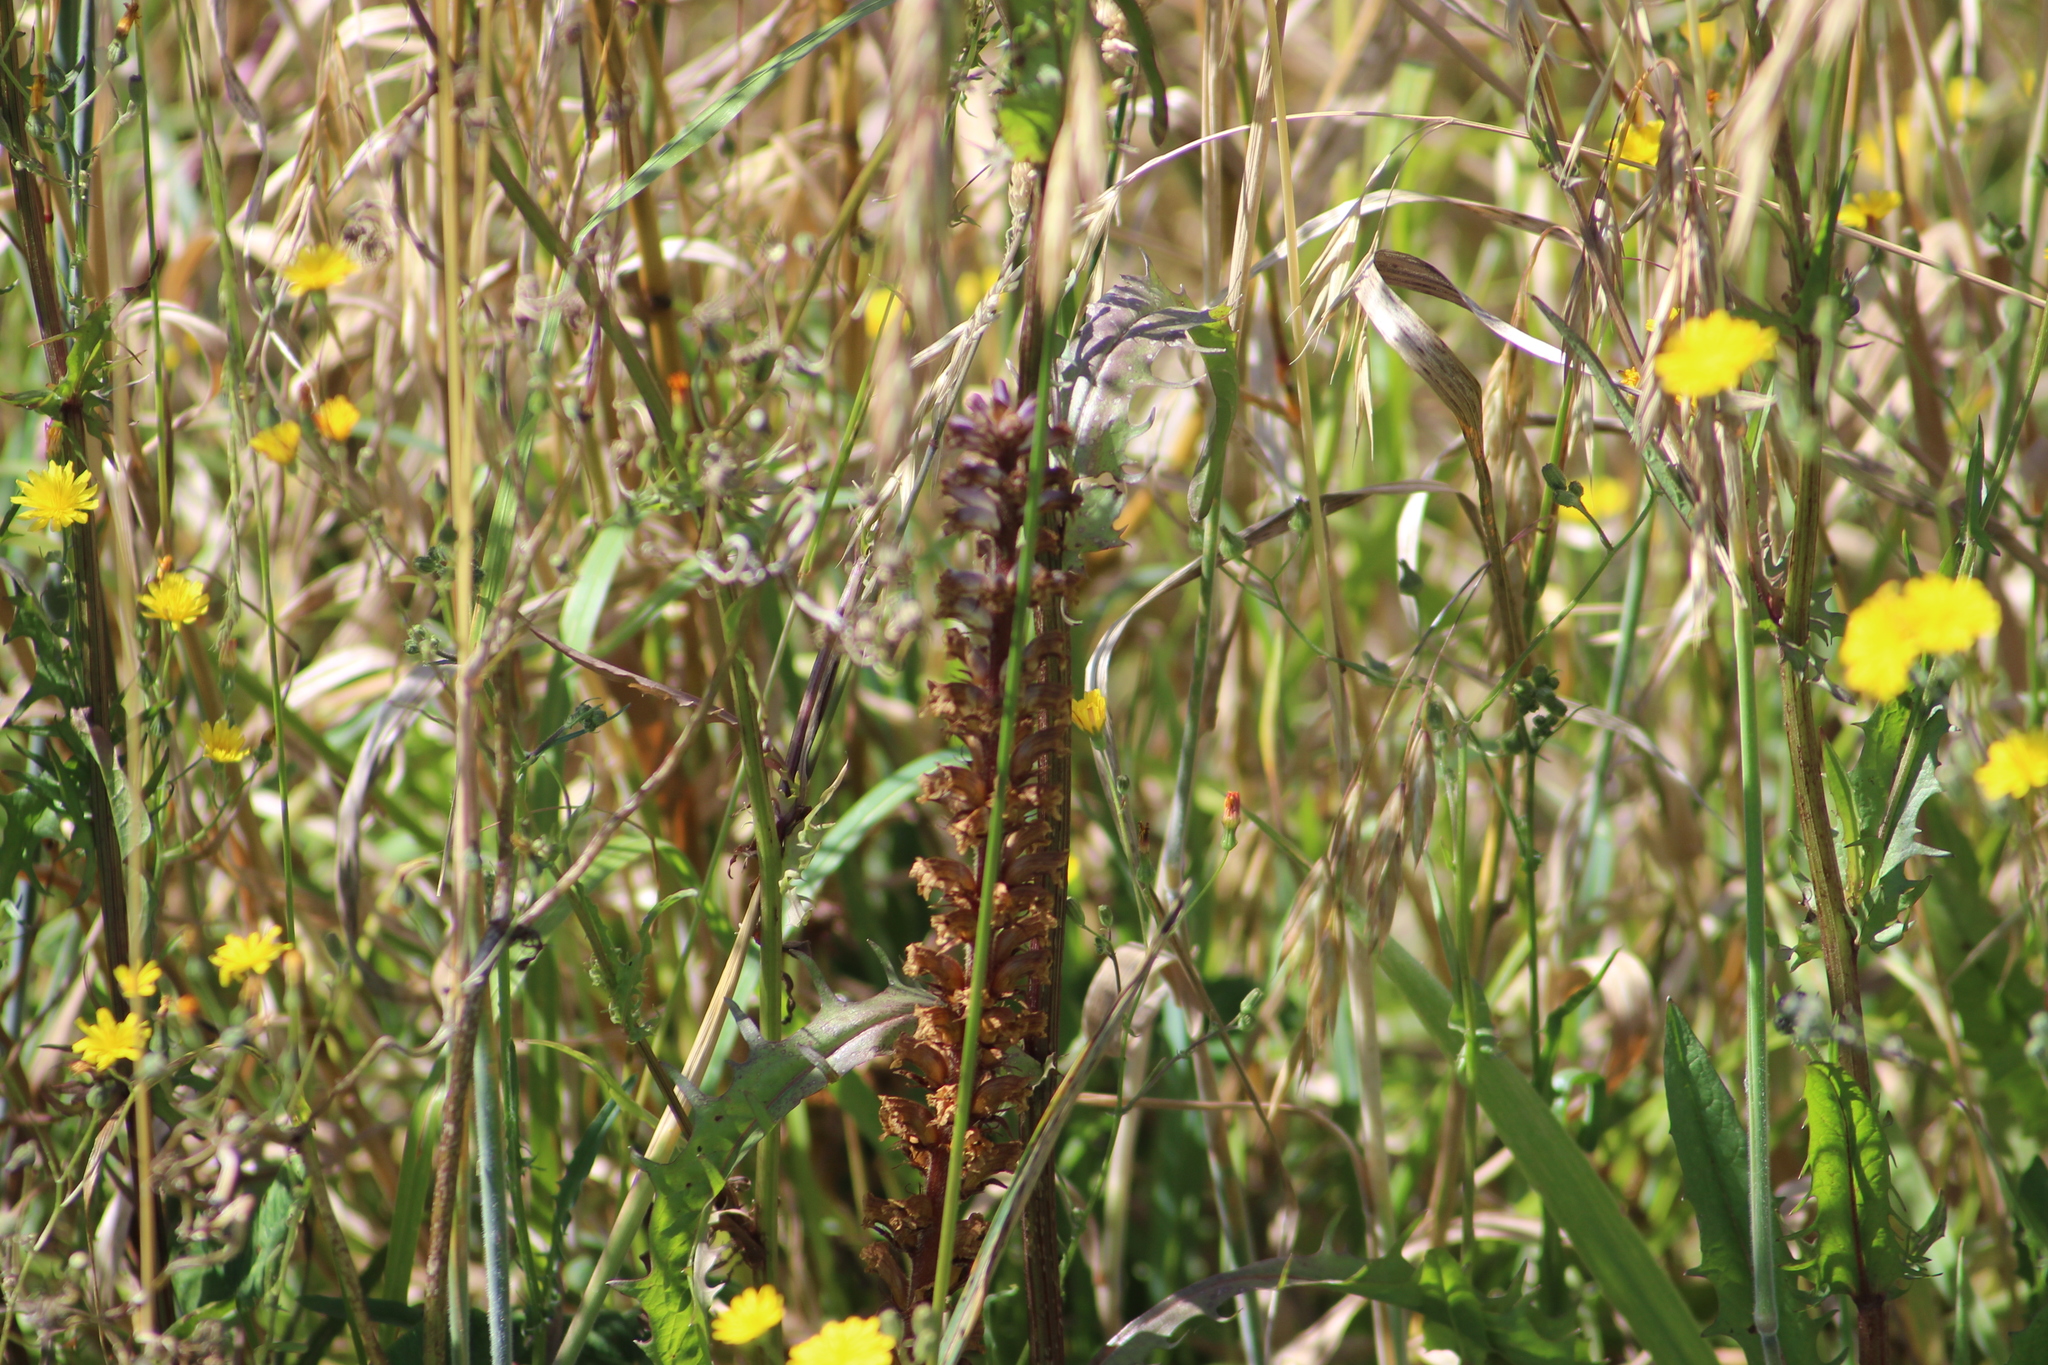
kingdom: Plantae
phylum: Tracheophyta
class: Magnoliopsida
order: Lamiales
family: Orobanchaceae
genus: Orobanche
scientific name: Orobanche minor
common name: Common broomrape
